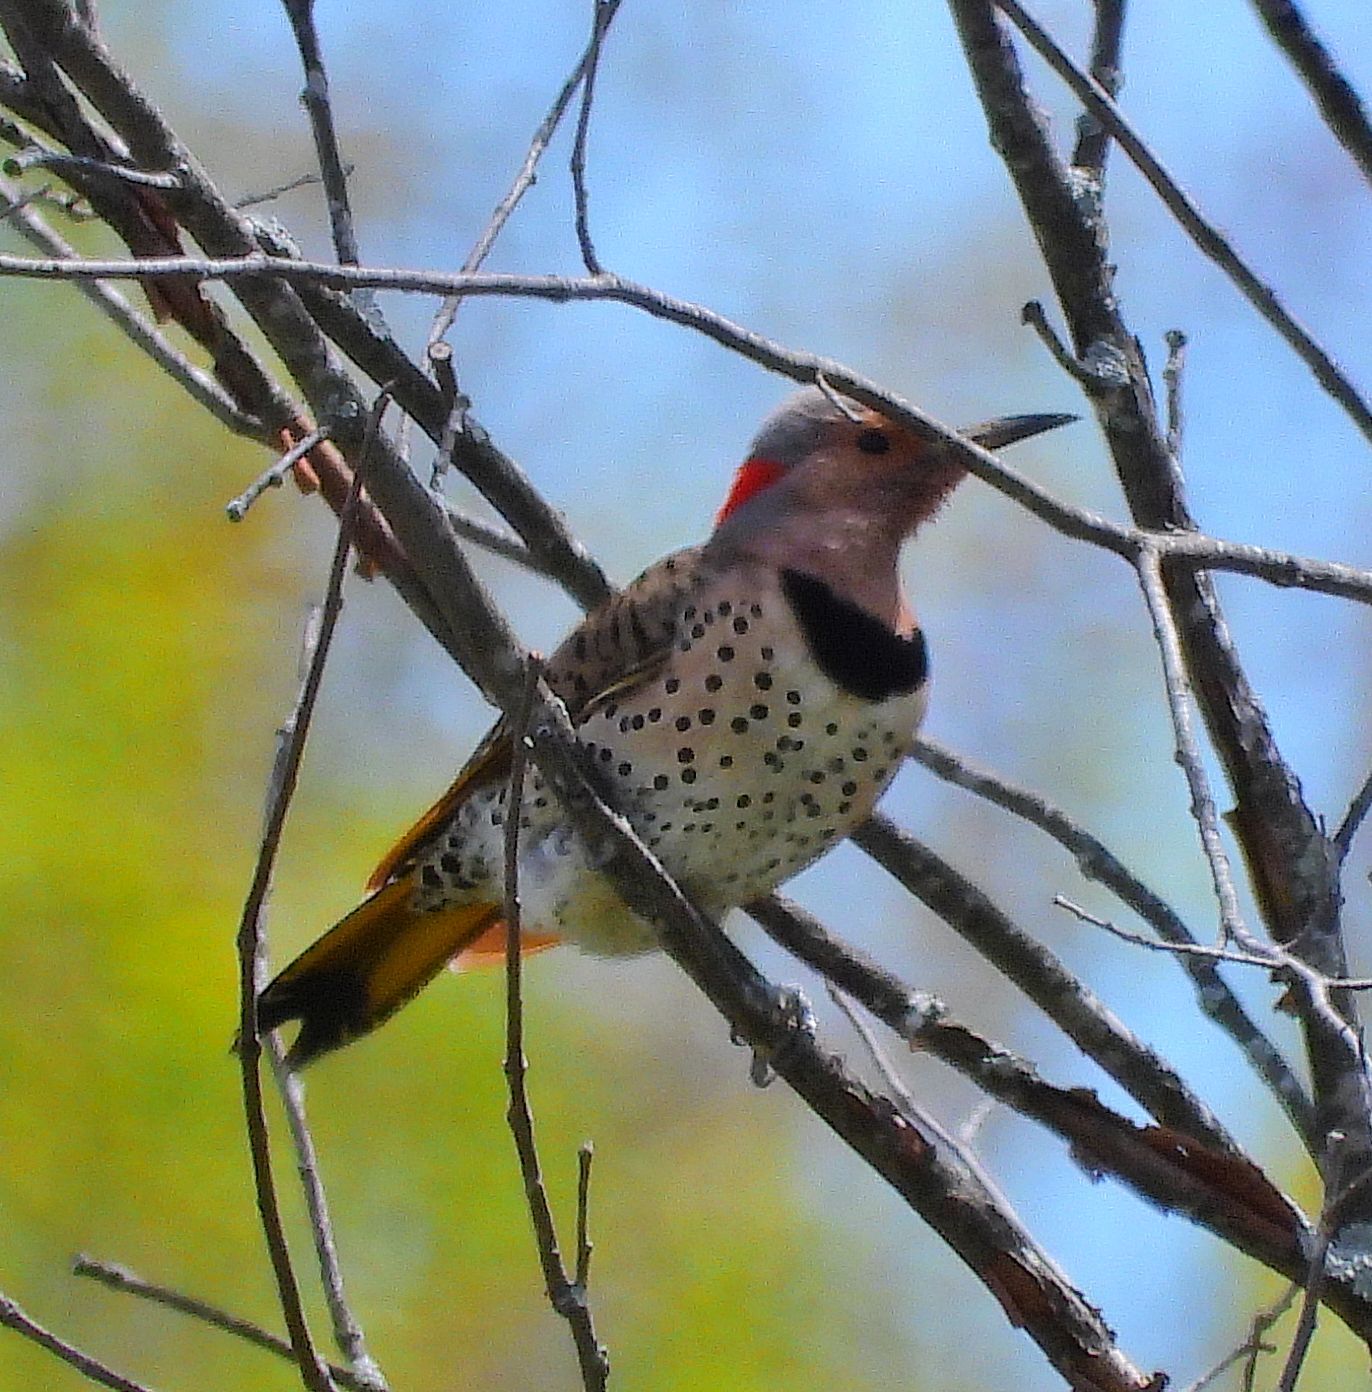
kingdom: Animalia
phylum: Chordata
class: Aves
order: Piciformes
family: Picidae
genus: Colaptes
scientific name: Colaptes auratus
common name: Northern flicker
